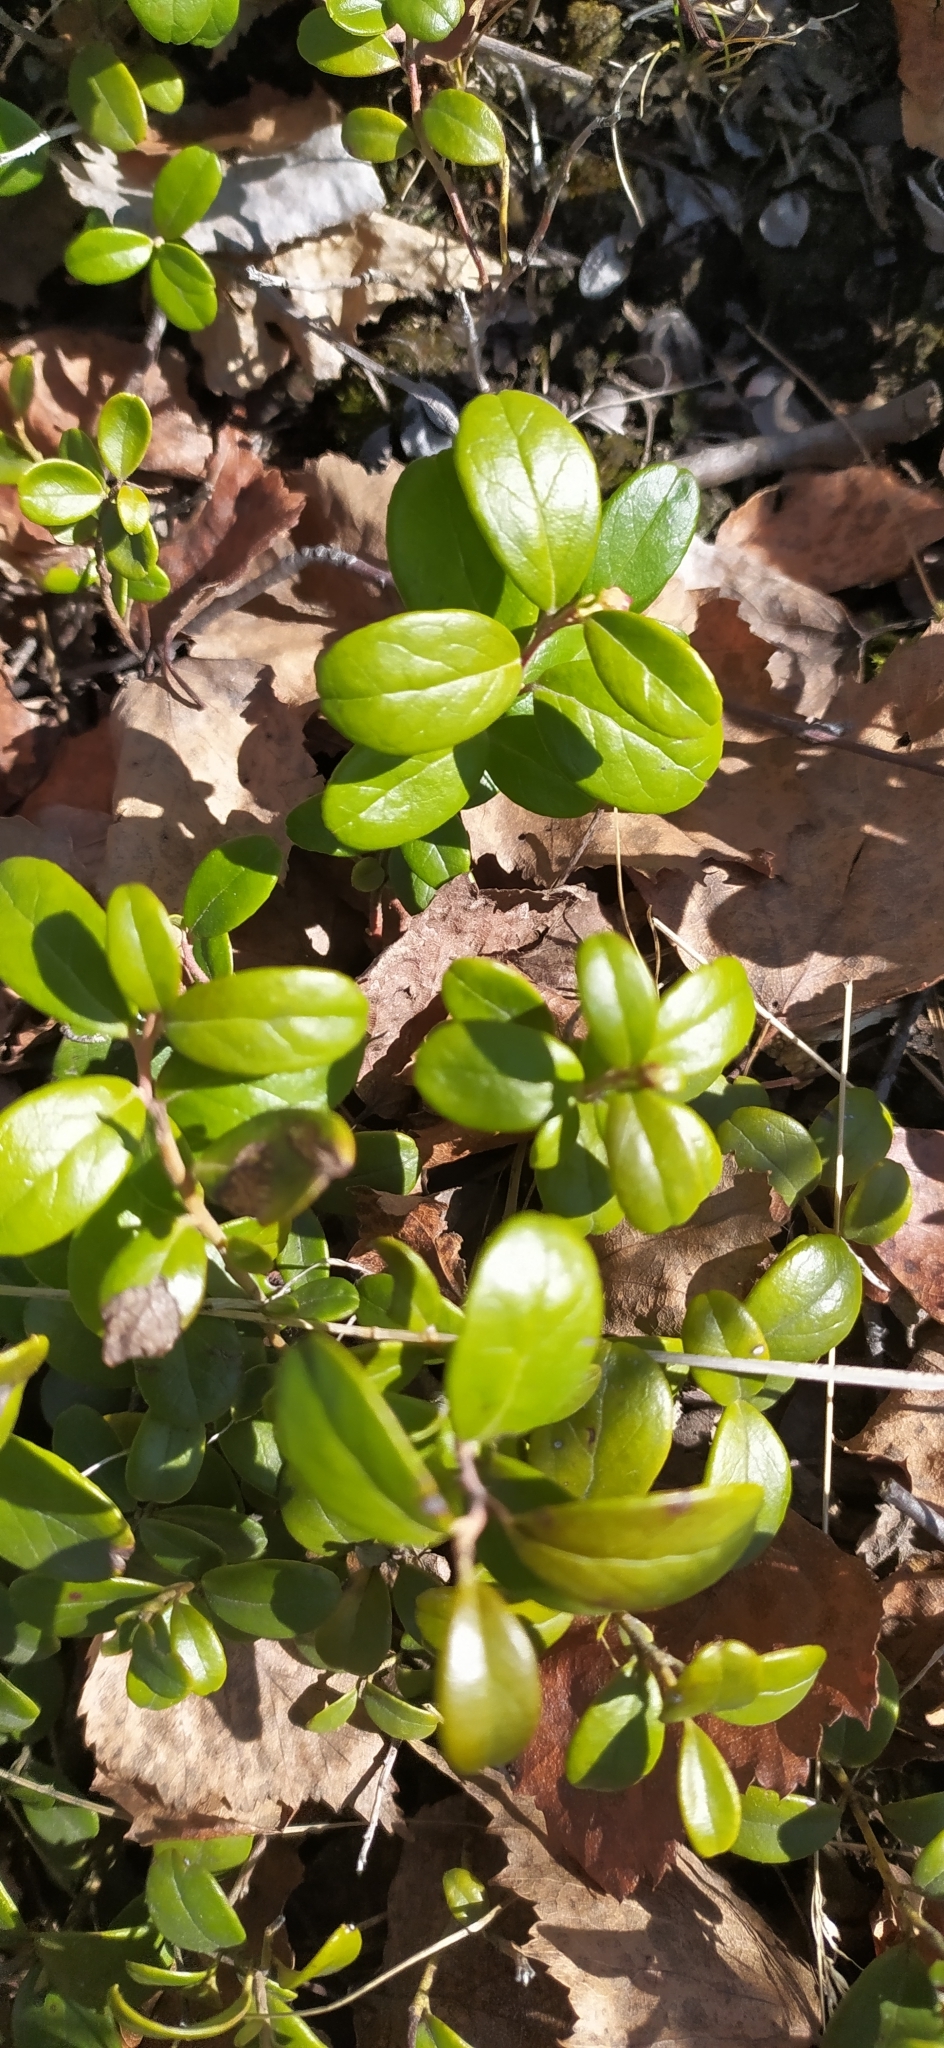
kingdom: Plantae
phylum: Tracheophyta
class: Magnoliopsida
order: Ericales
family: Ericaceae
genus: Vaccinium
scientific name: Vaccinium vitis-idaea
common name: Cowberry
